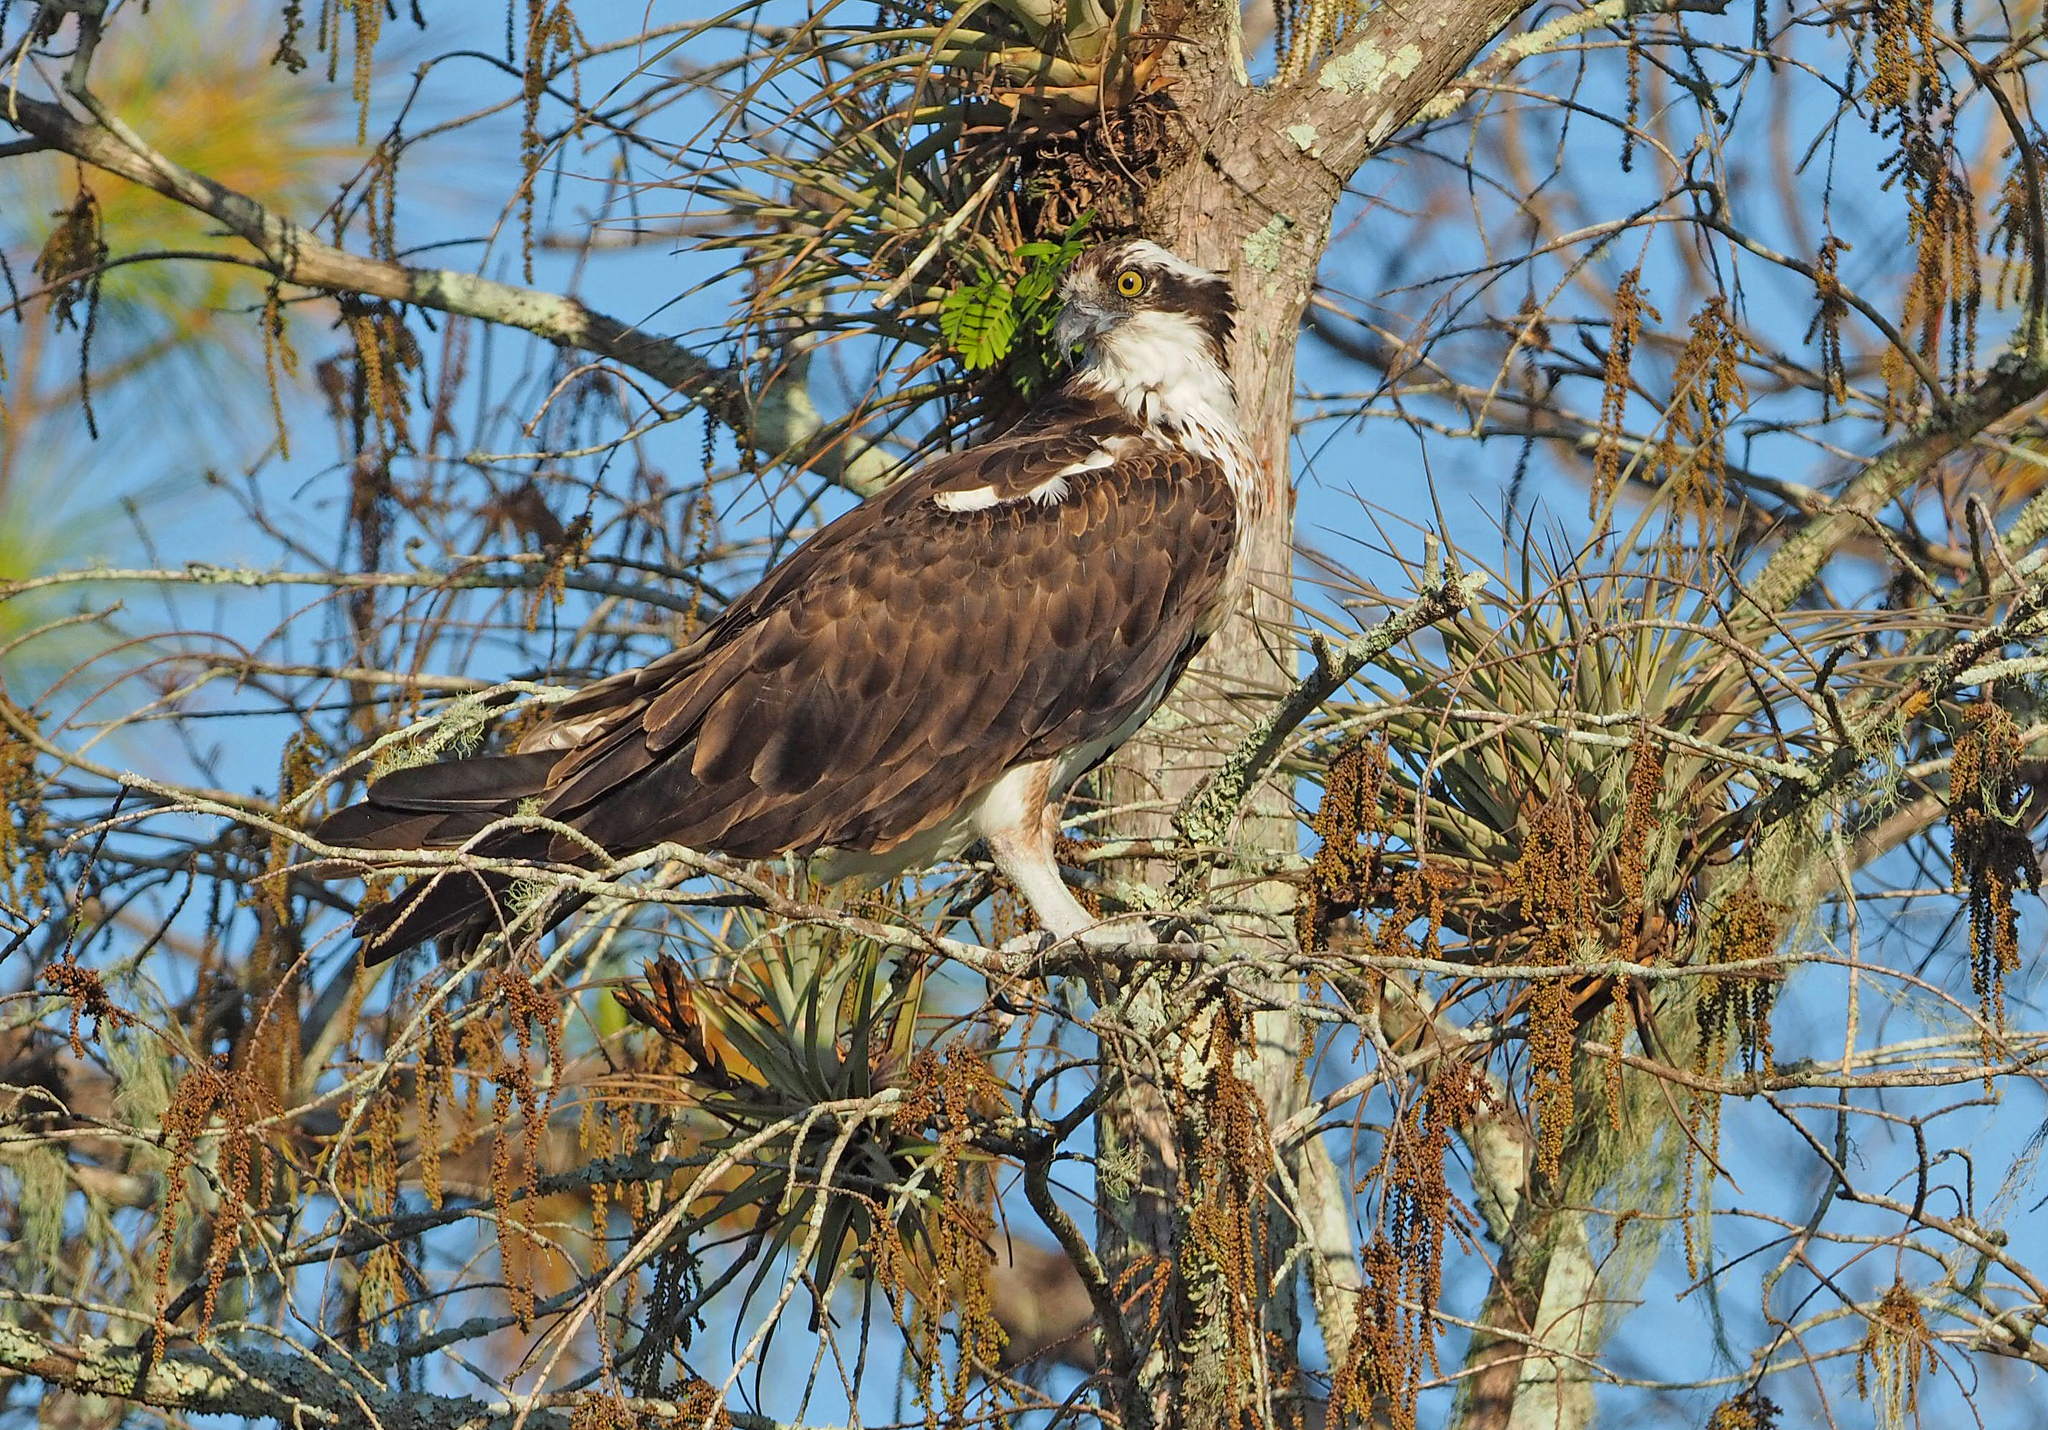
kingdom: Animalia
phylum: Chordata
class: Aves
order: Accipitriformes
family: Pandionidae
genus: Pandion
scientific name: Pandion haliaetus
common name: Osprey
